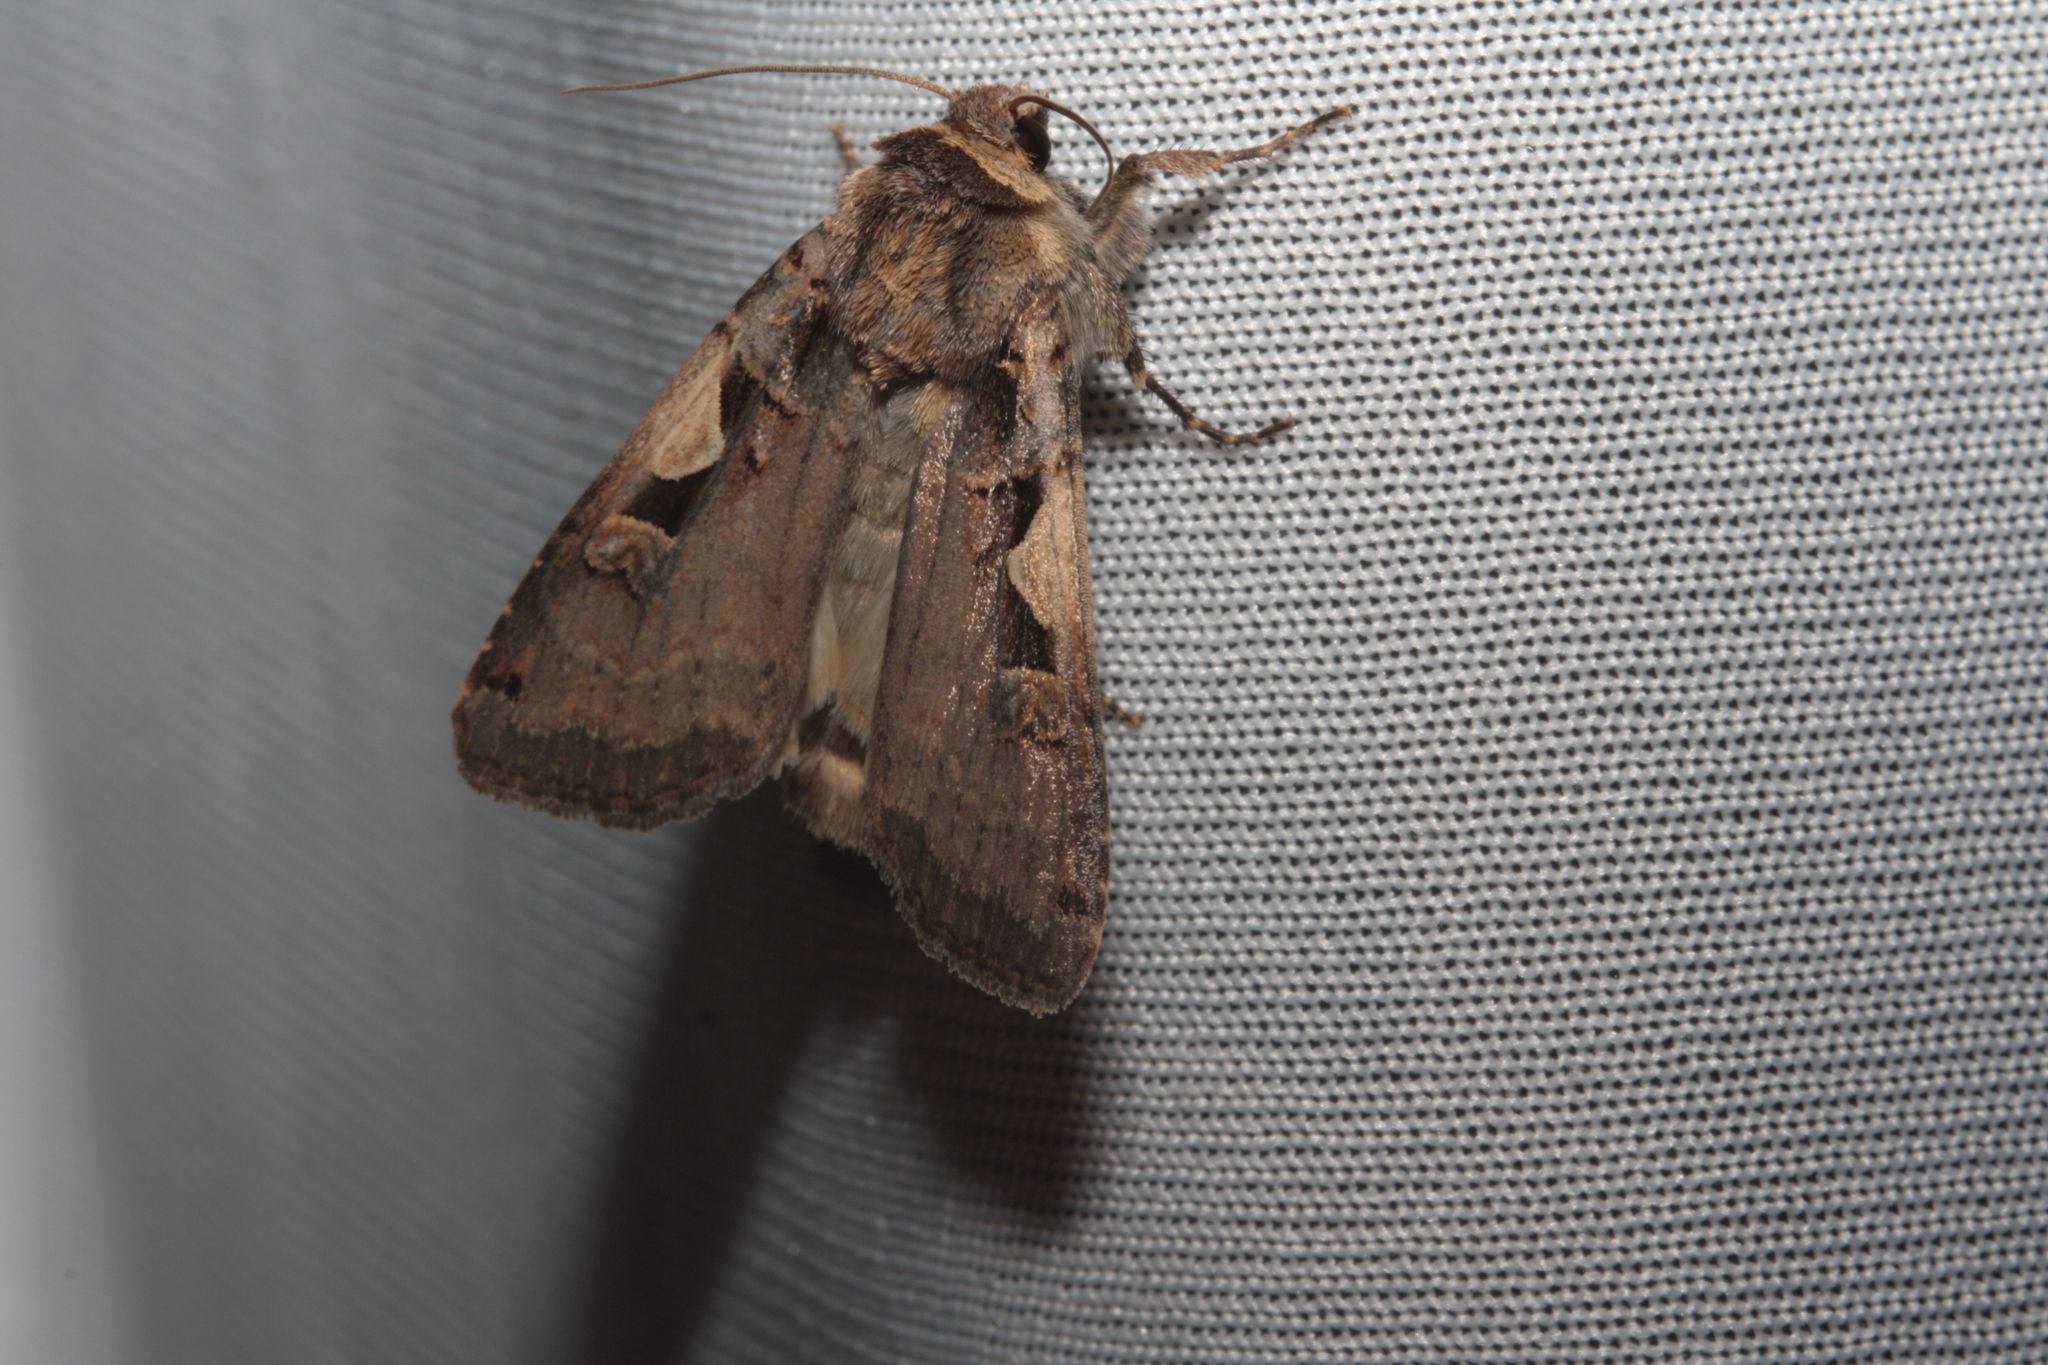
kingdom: Animalia
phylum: Arthropoda
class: Insecta
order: Lepidoptera
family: Noctuidae
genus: Xestia
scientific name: Xestia c-nigrum
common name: Setaceous hebrew character
